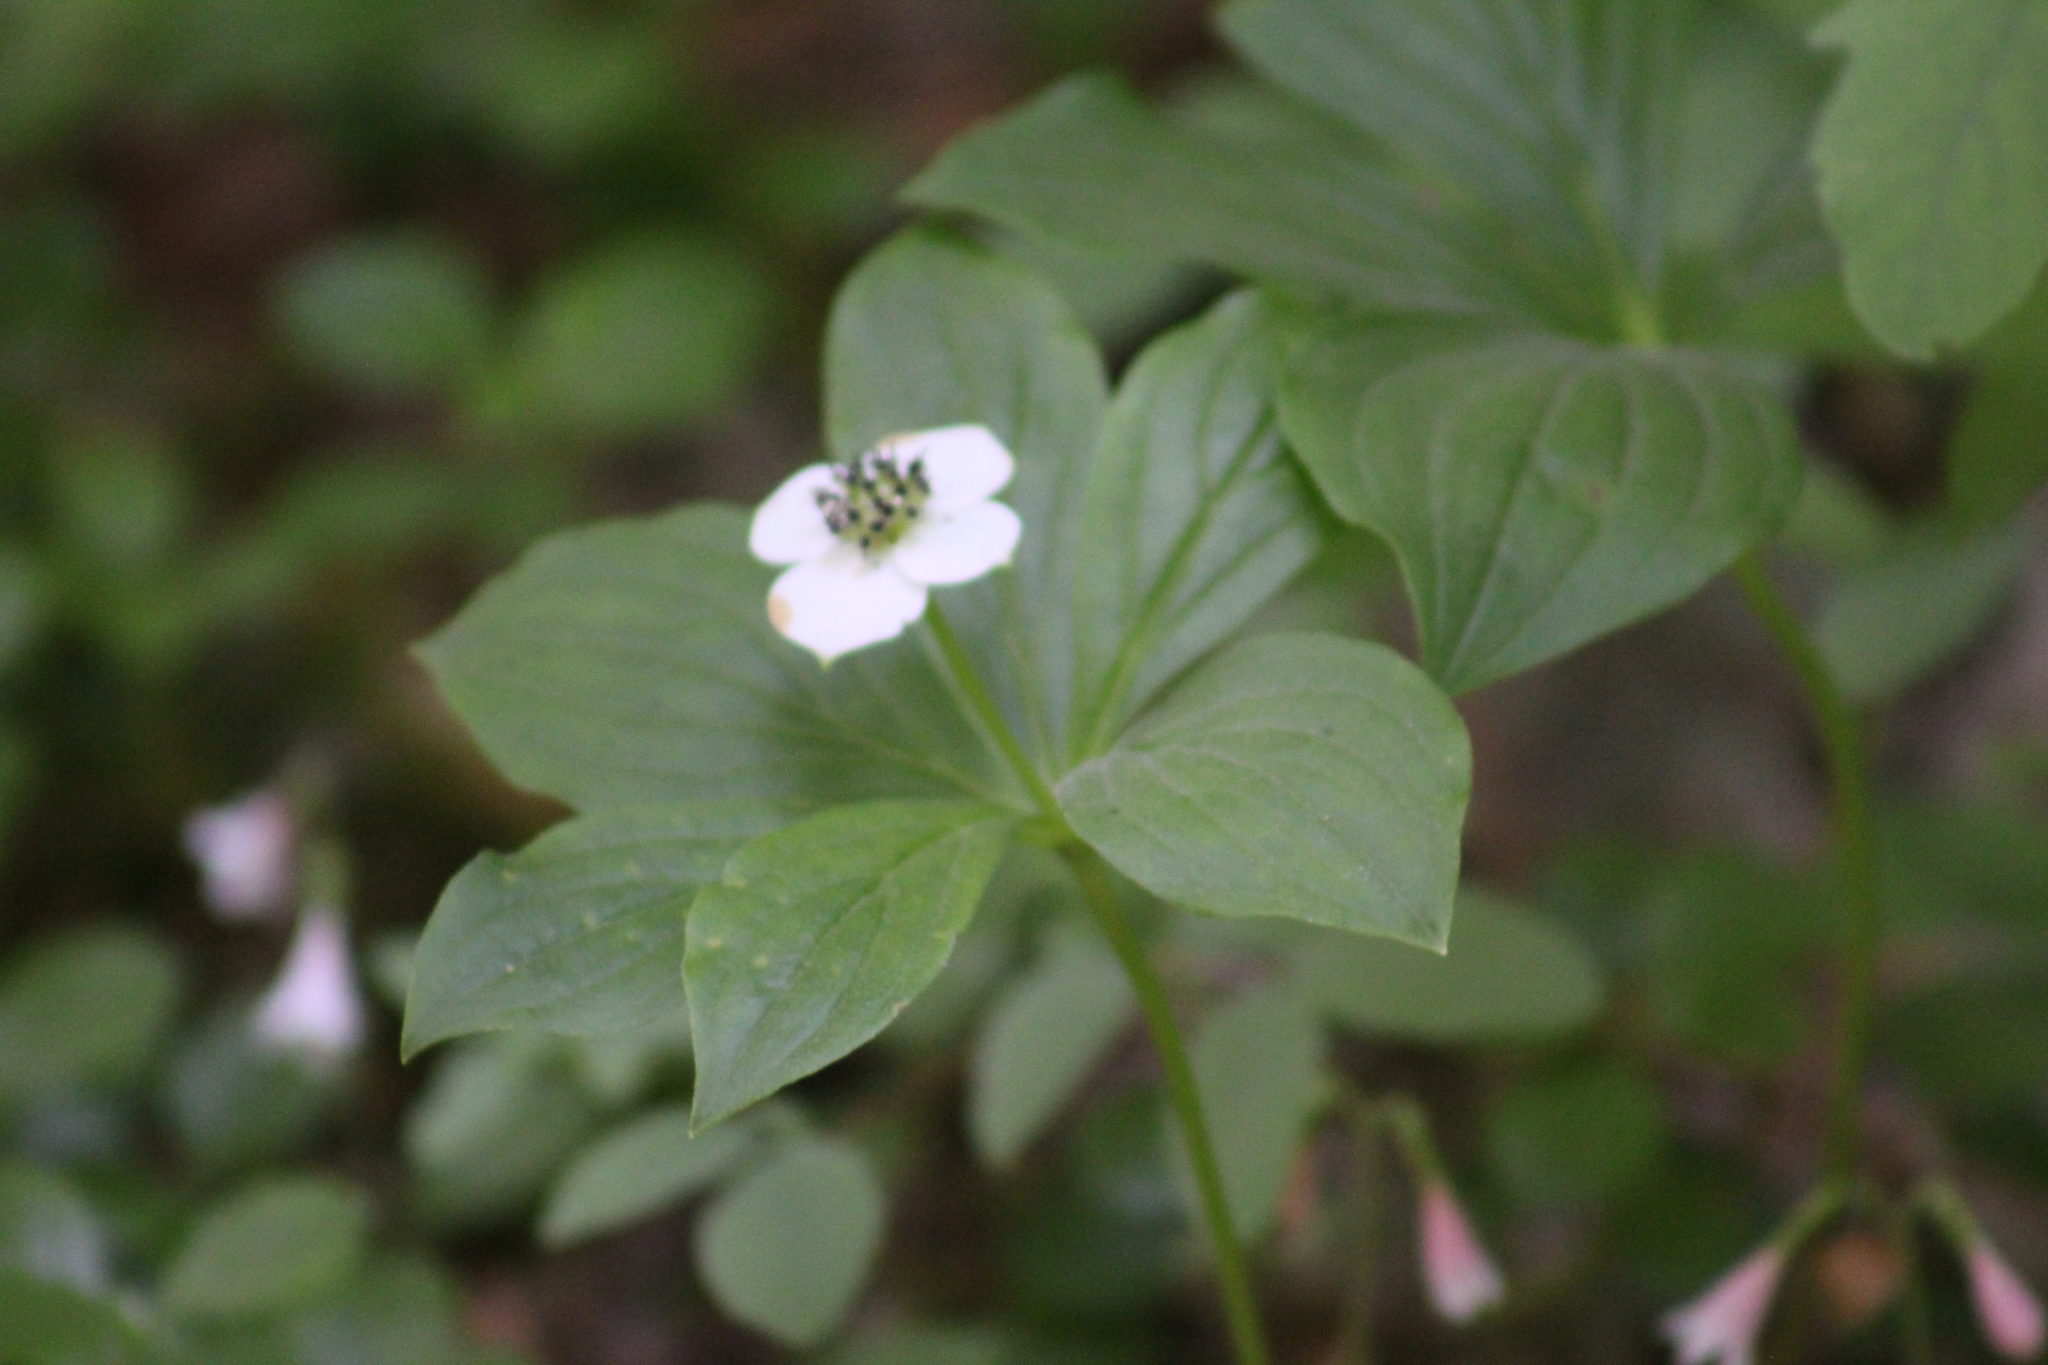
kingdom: Plantae
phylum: Tracheophyta
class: Magnoliopsida
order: Cornales
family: Cornaceae
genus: Cornus
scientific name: Cornus unalaschkensis
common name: Alaska bunchberry
